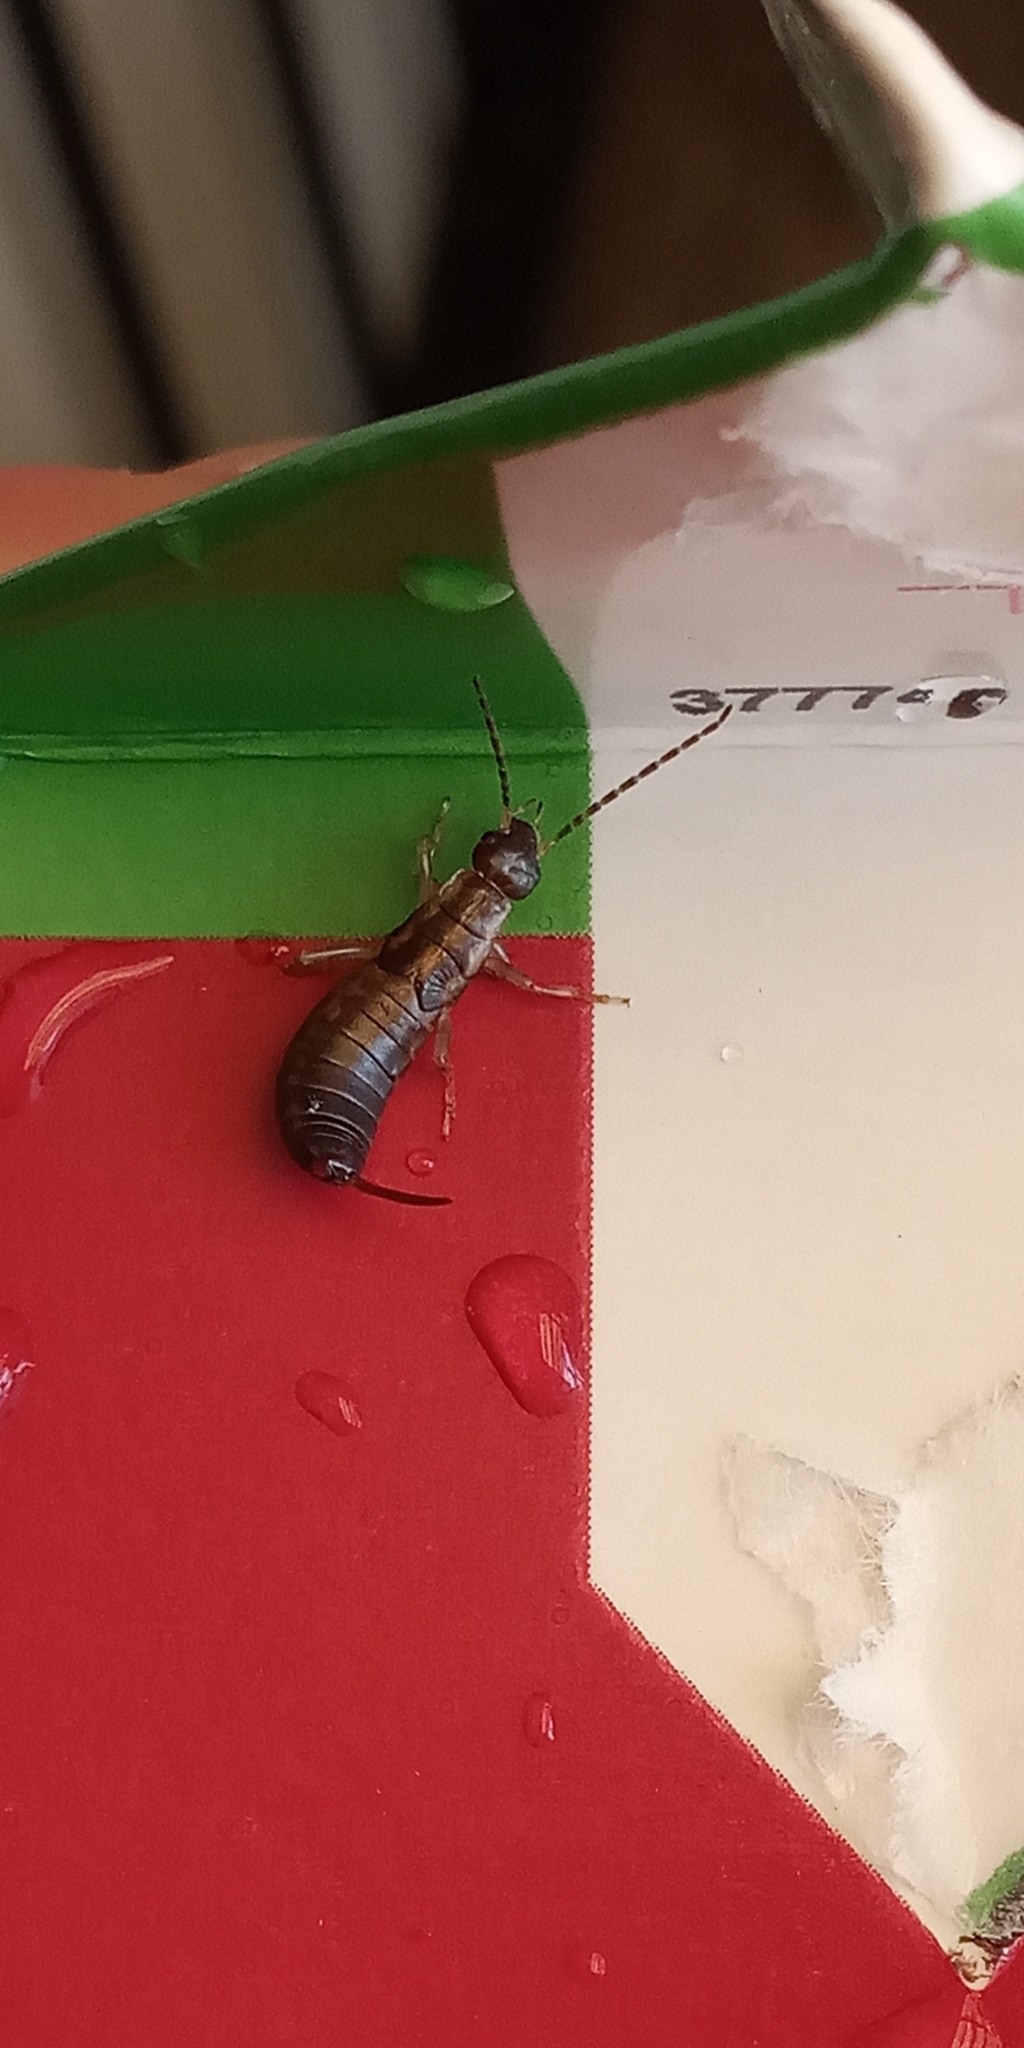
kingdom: Animalia
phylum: Arthropoda
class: Insecta
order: Dermaptera
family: Forficulidae
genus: Forficula
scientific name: Forficula
